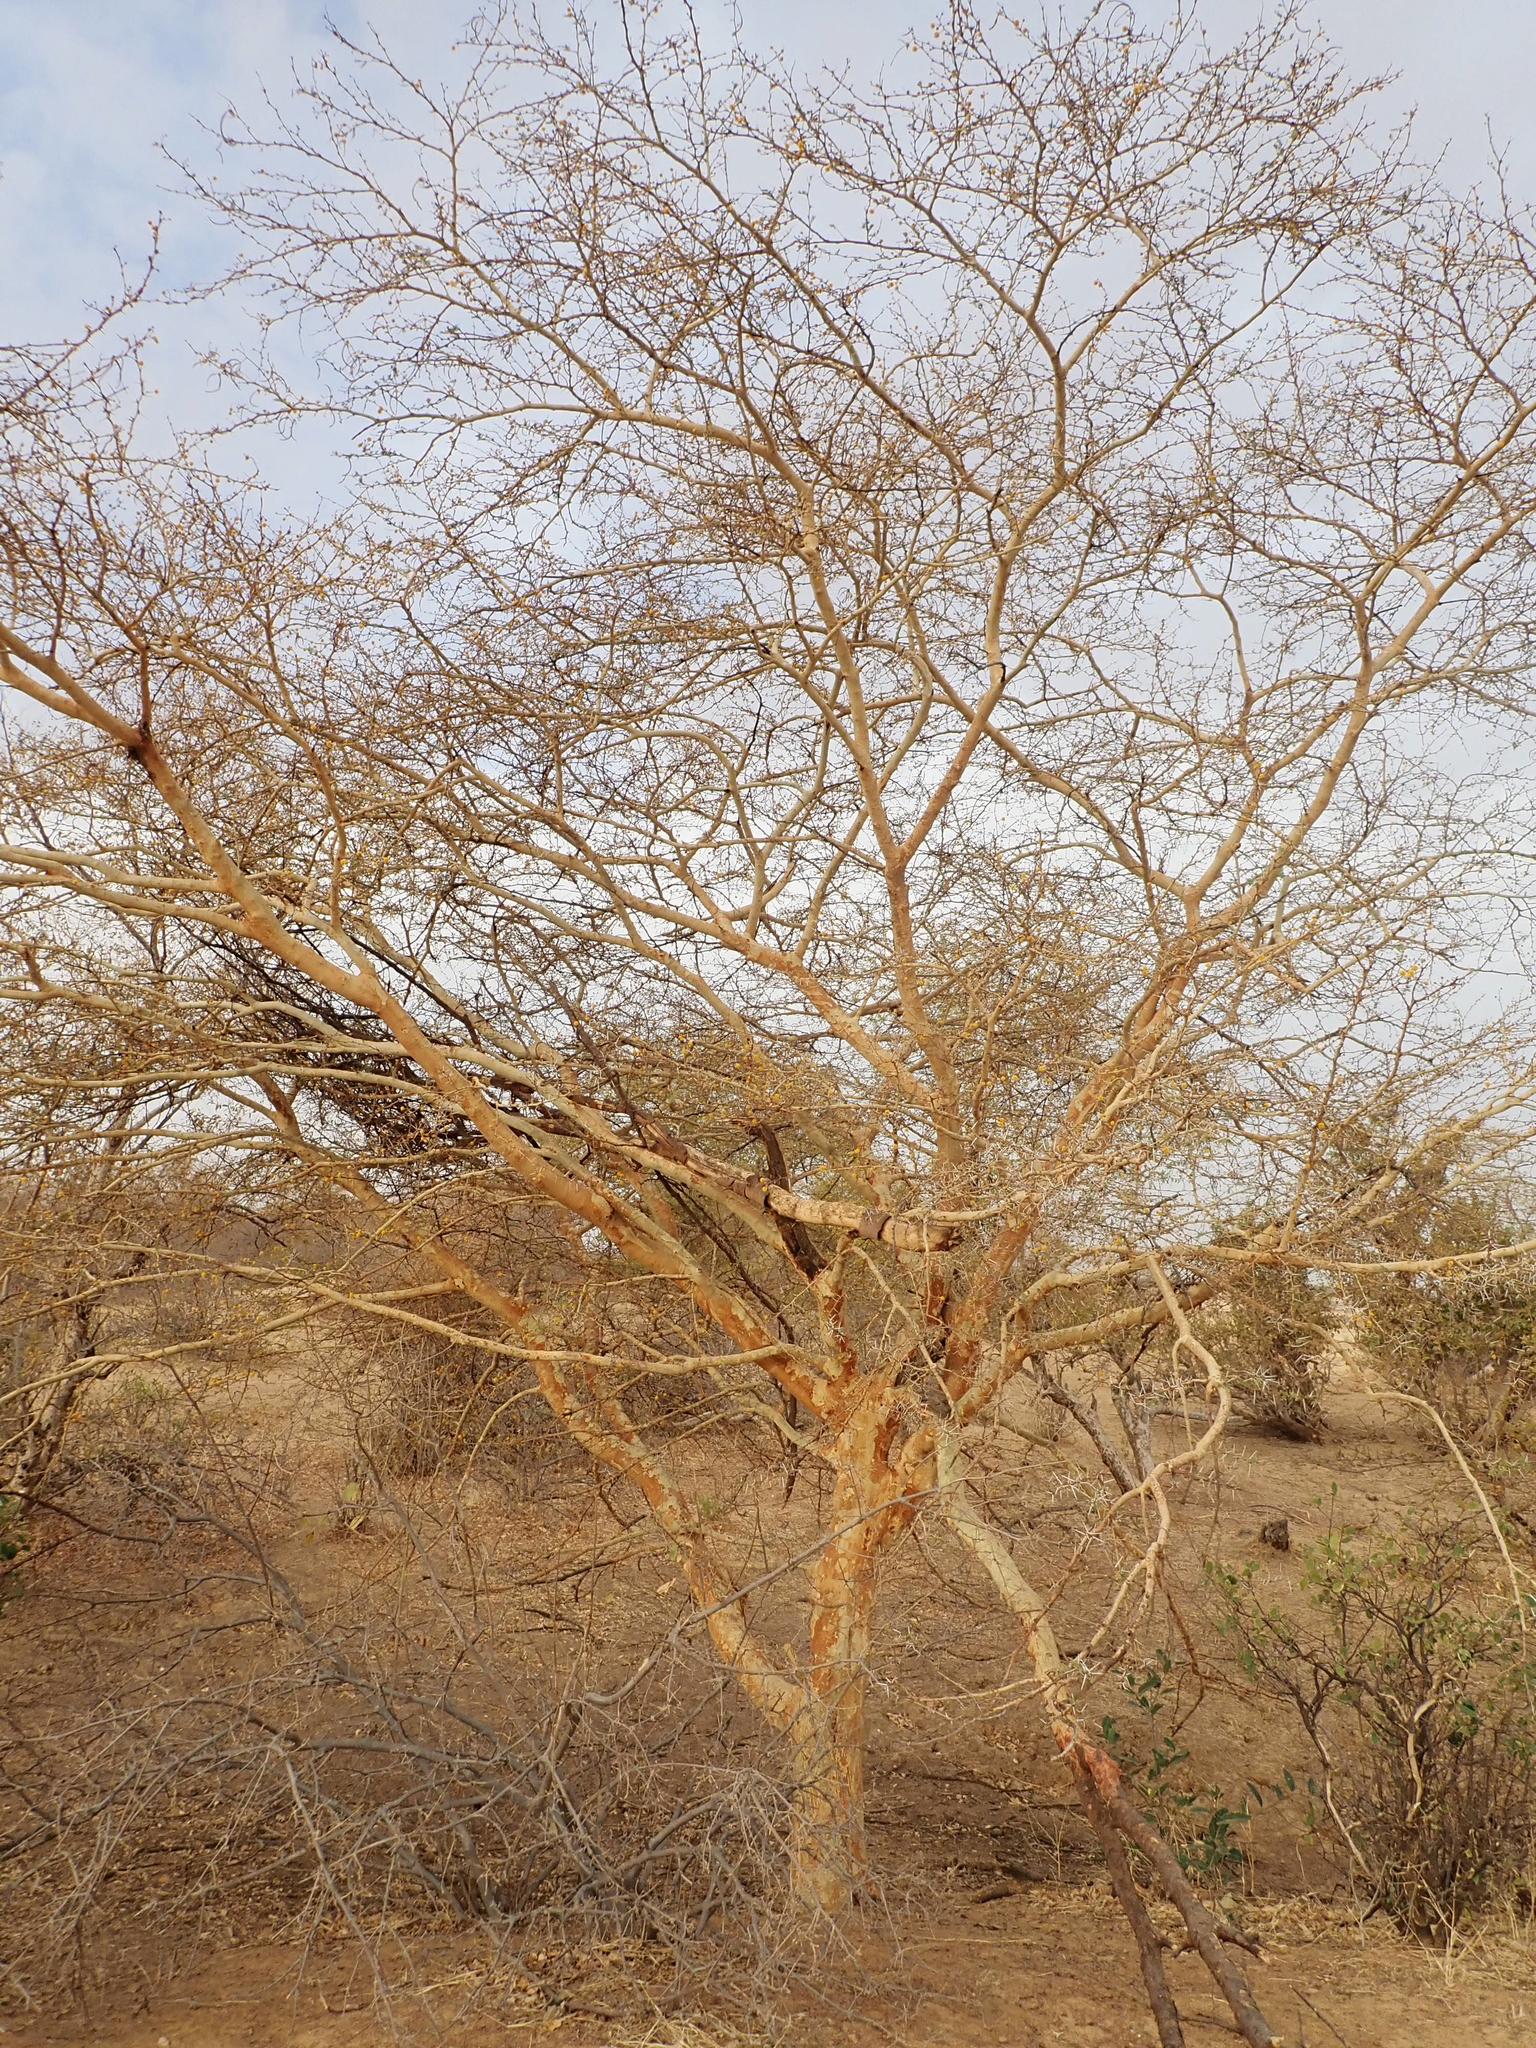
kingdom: Plantae
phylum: Tracheophyta
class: Magnoliopsida
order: Fabales
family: Fabaceae
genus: Vachellia
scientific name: Vachellia seyal
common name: Thirtythorn
